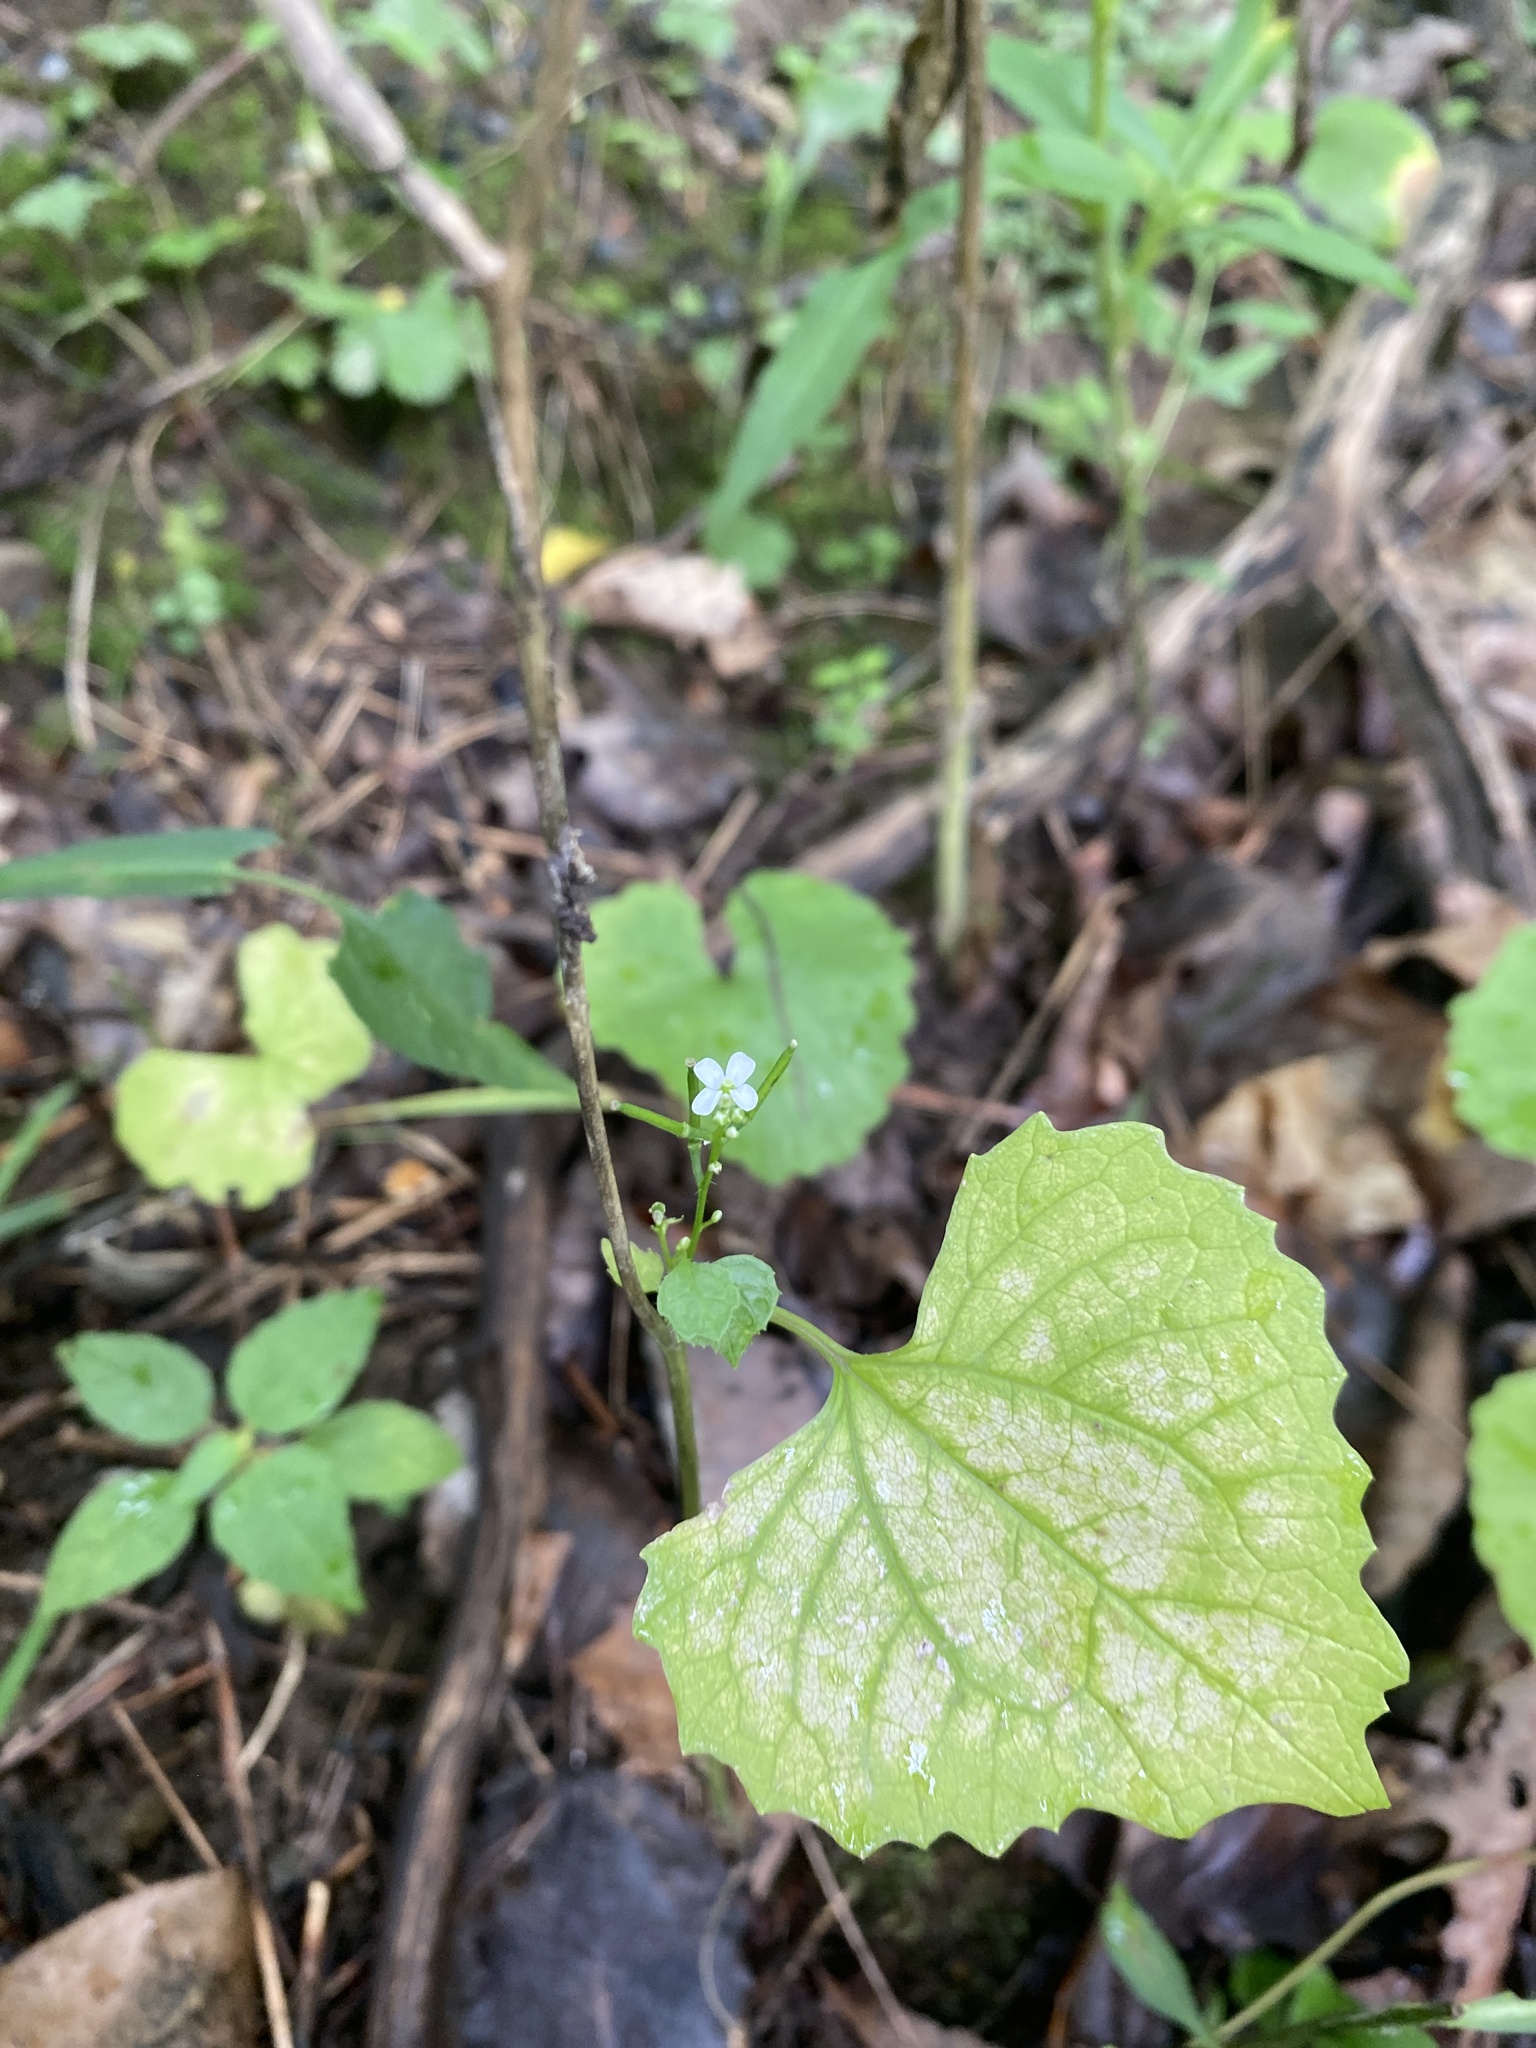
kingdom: Plantae
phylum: Tracheophyta
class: Magnoliopsida
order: Brassicales
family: Brassicaceae
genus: Alliaria
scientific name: Alliaria petiolata
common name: Garlic mustard
